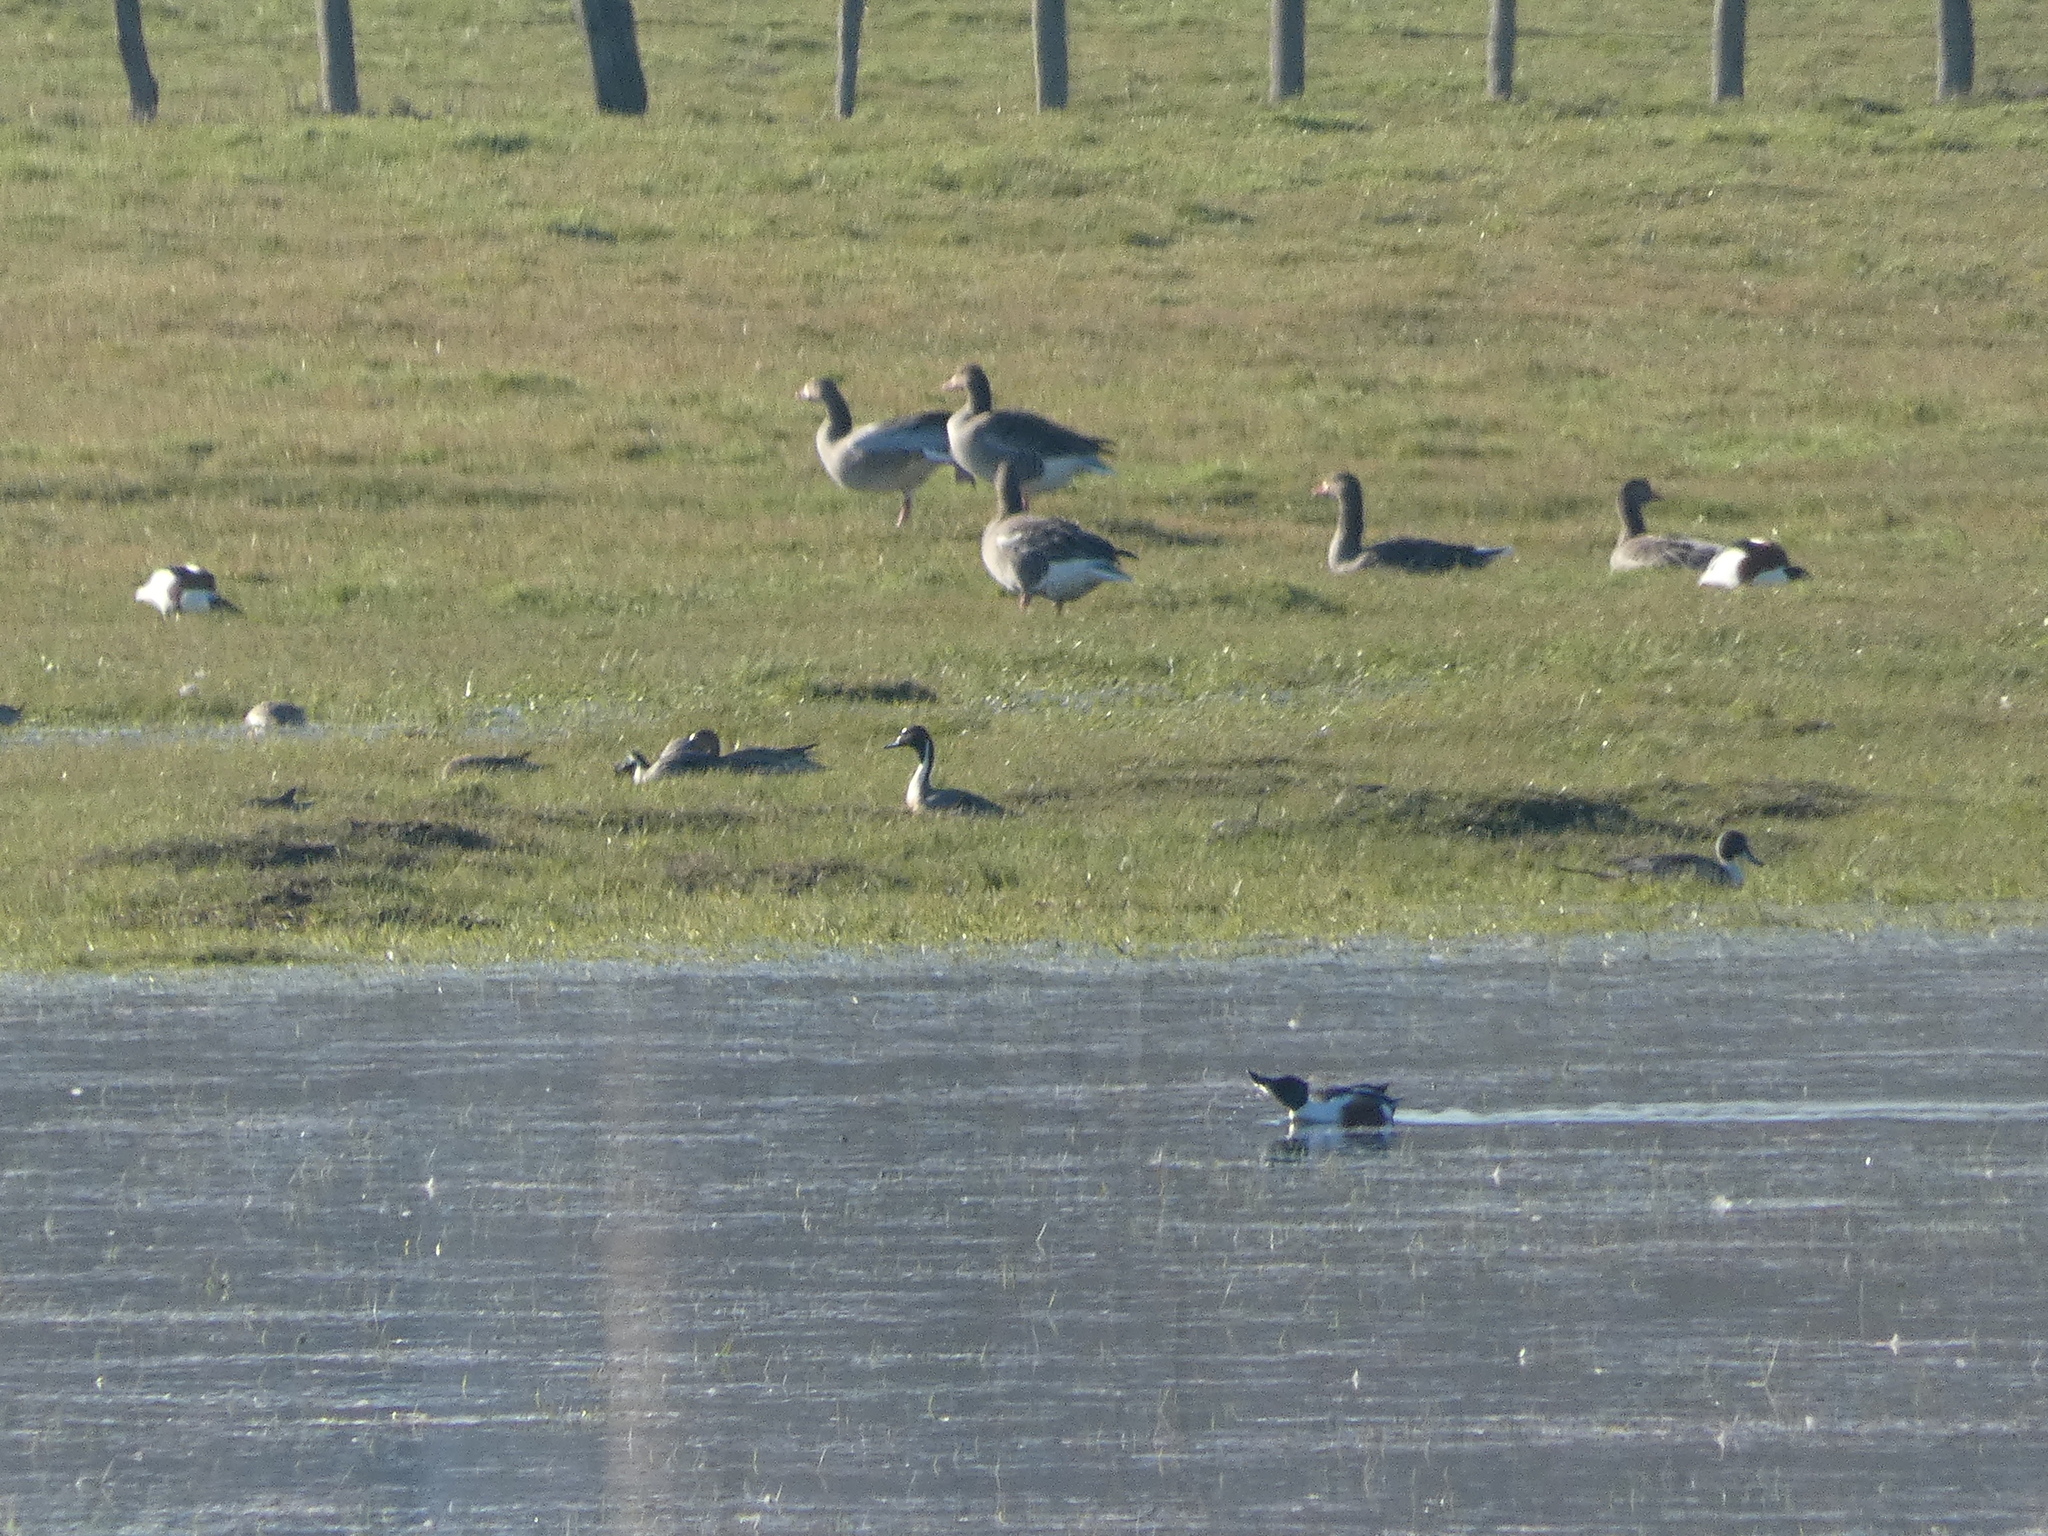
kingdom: Animalia
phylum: Chordata
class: Aves
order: Anseriformes
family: Anatidae
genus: Anas
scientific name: Anas acuta
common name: Northern pintail
